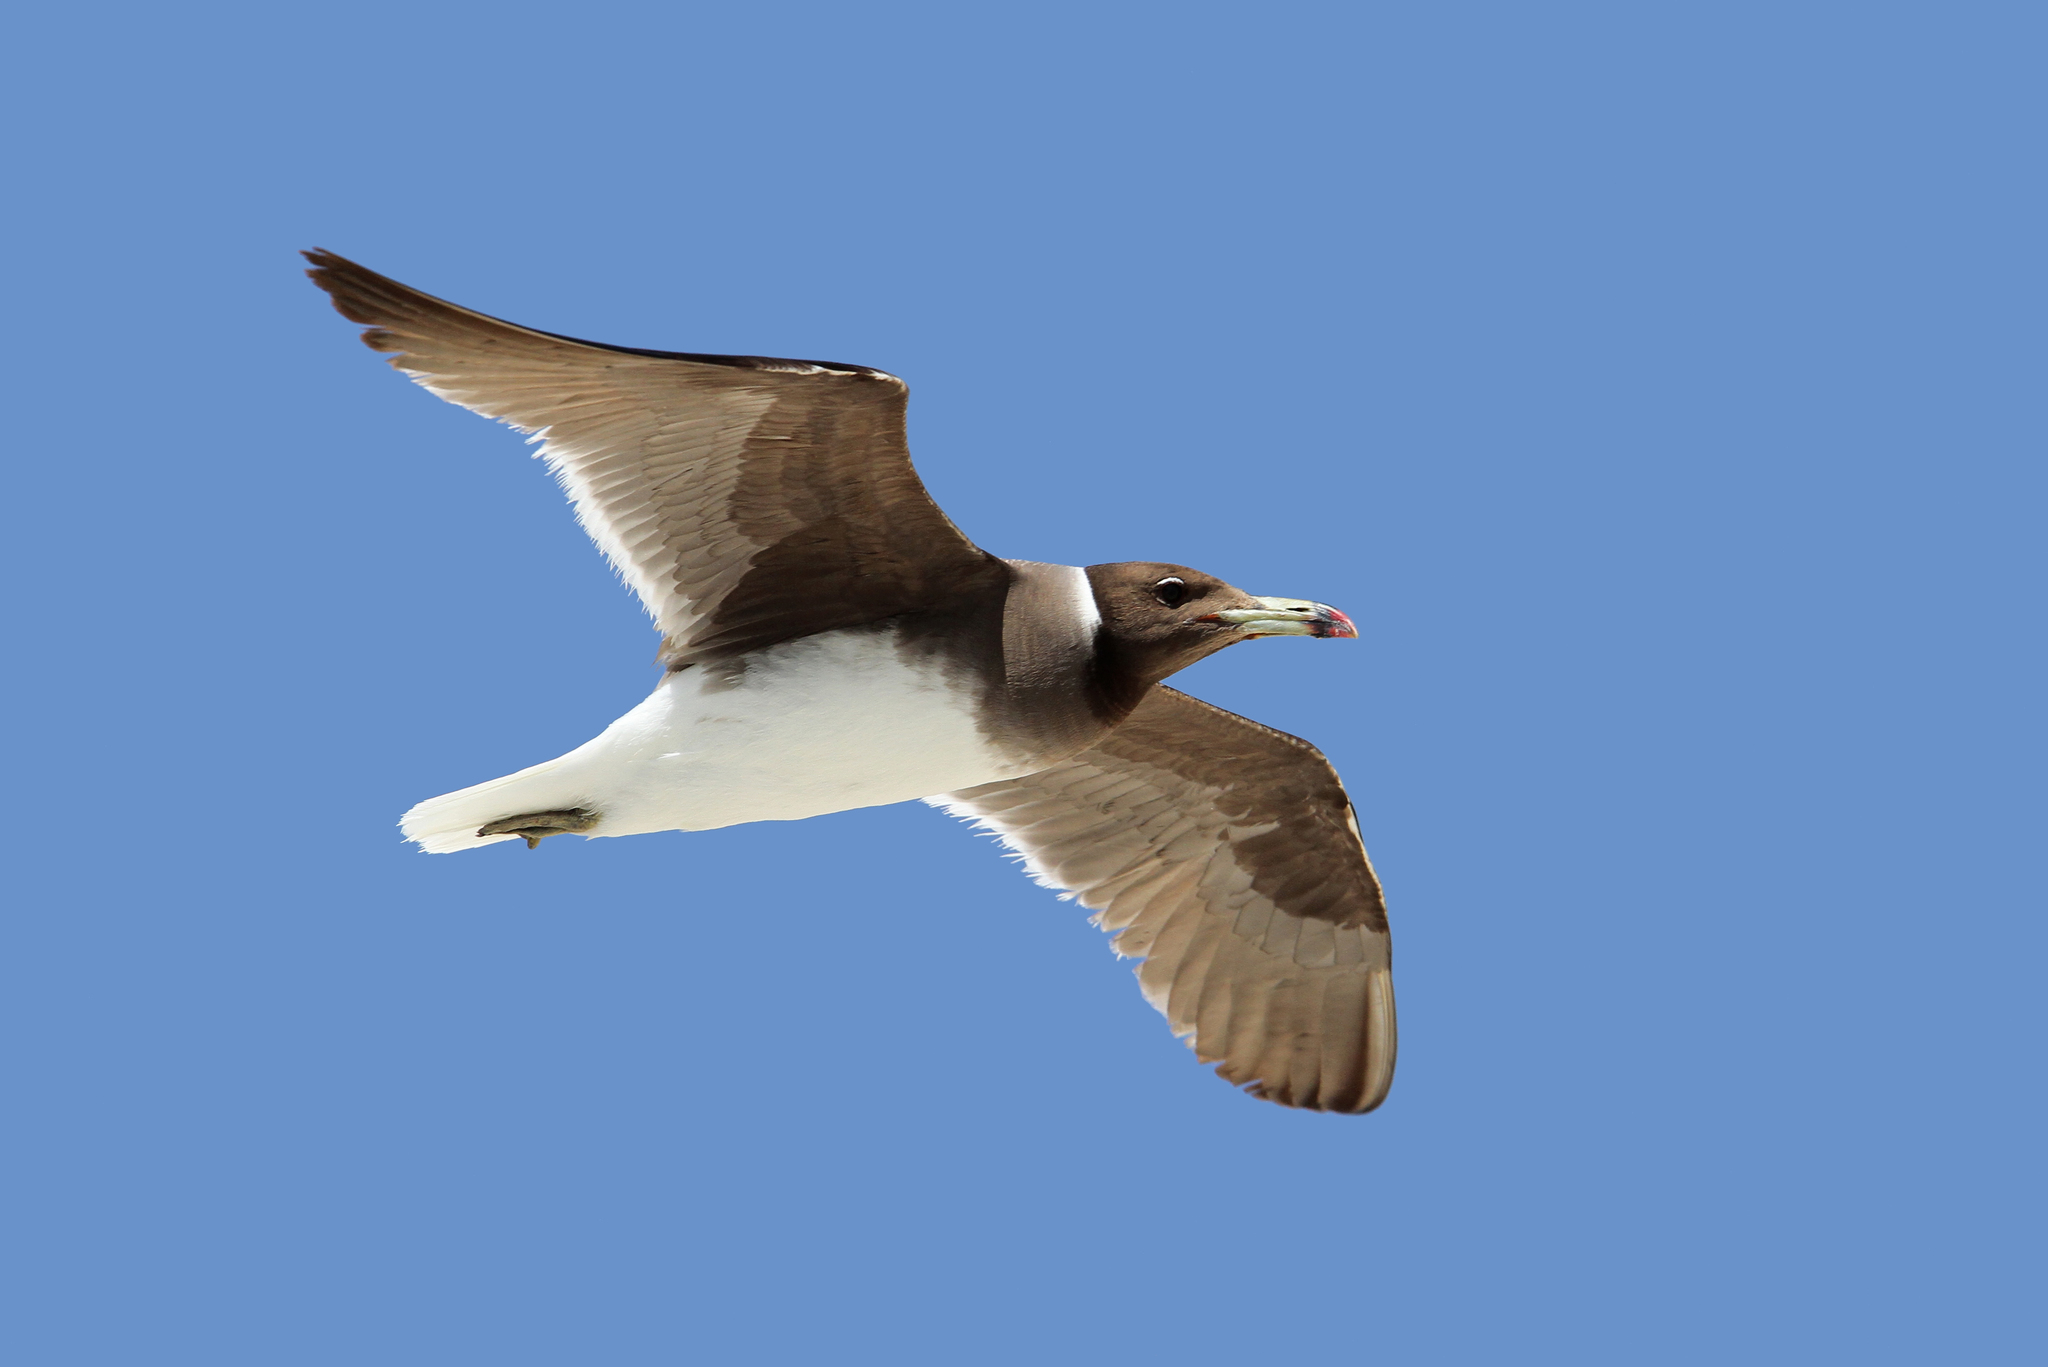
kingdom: Animalia
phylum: Chordata
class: Aves
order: Charadriiformes
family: Laridae
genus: Ichthyaetus
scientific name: Ichthyaetus hemprichii
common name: Sooty gull
